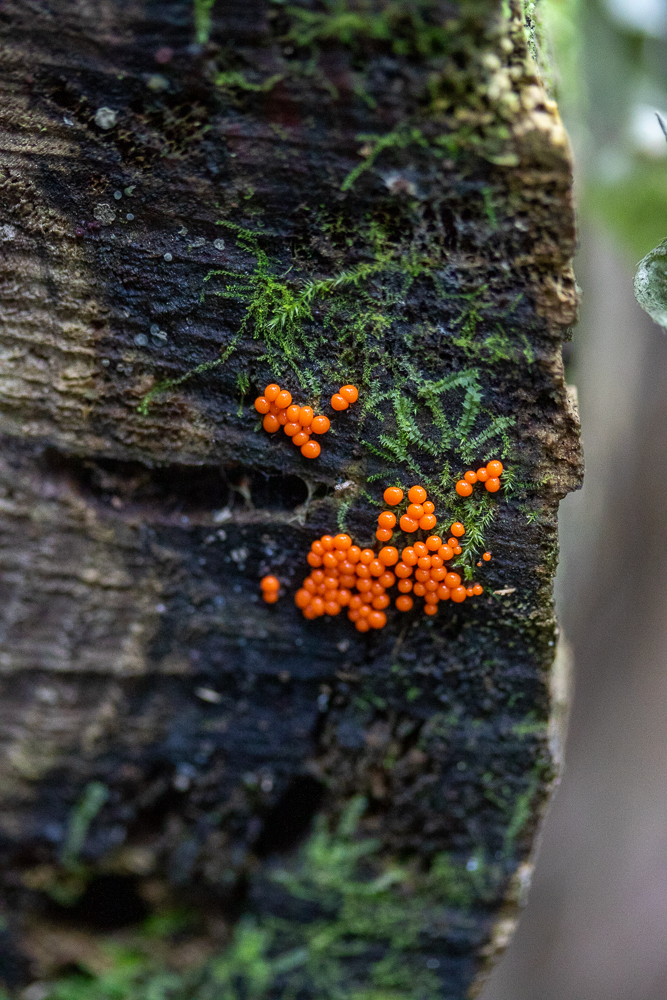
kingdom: Protozoa
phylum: Mycetozoa
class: Myxomycetes
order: Trichiales
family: Arcyriaceae
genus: Hemitrichia
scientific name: Hemitrichia decipiens
